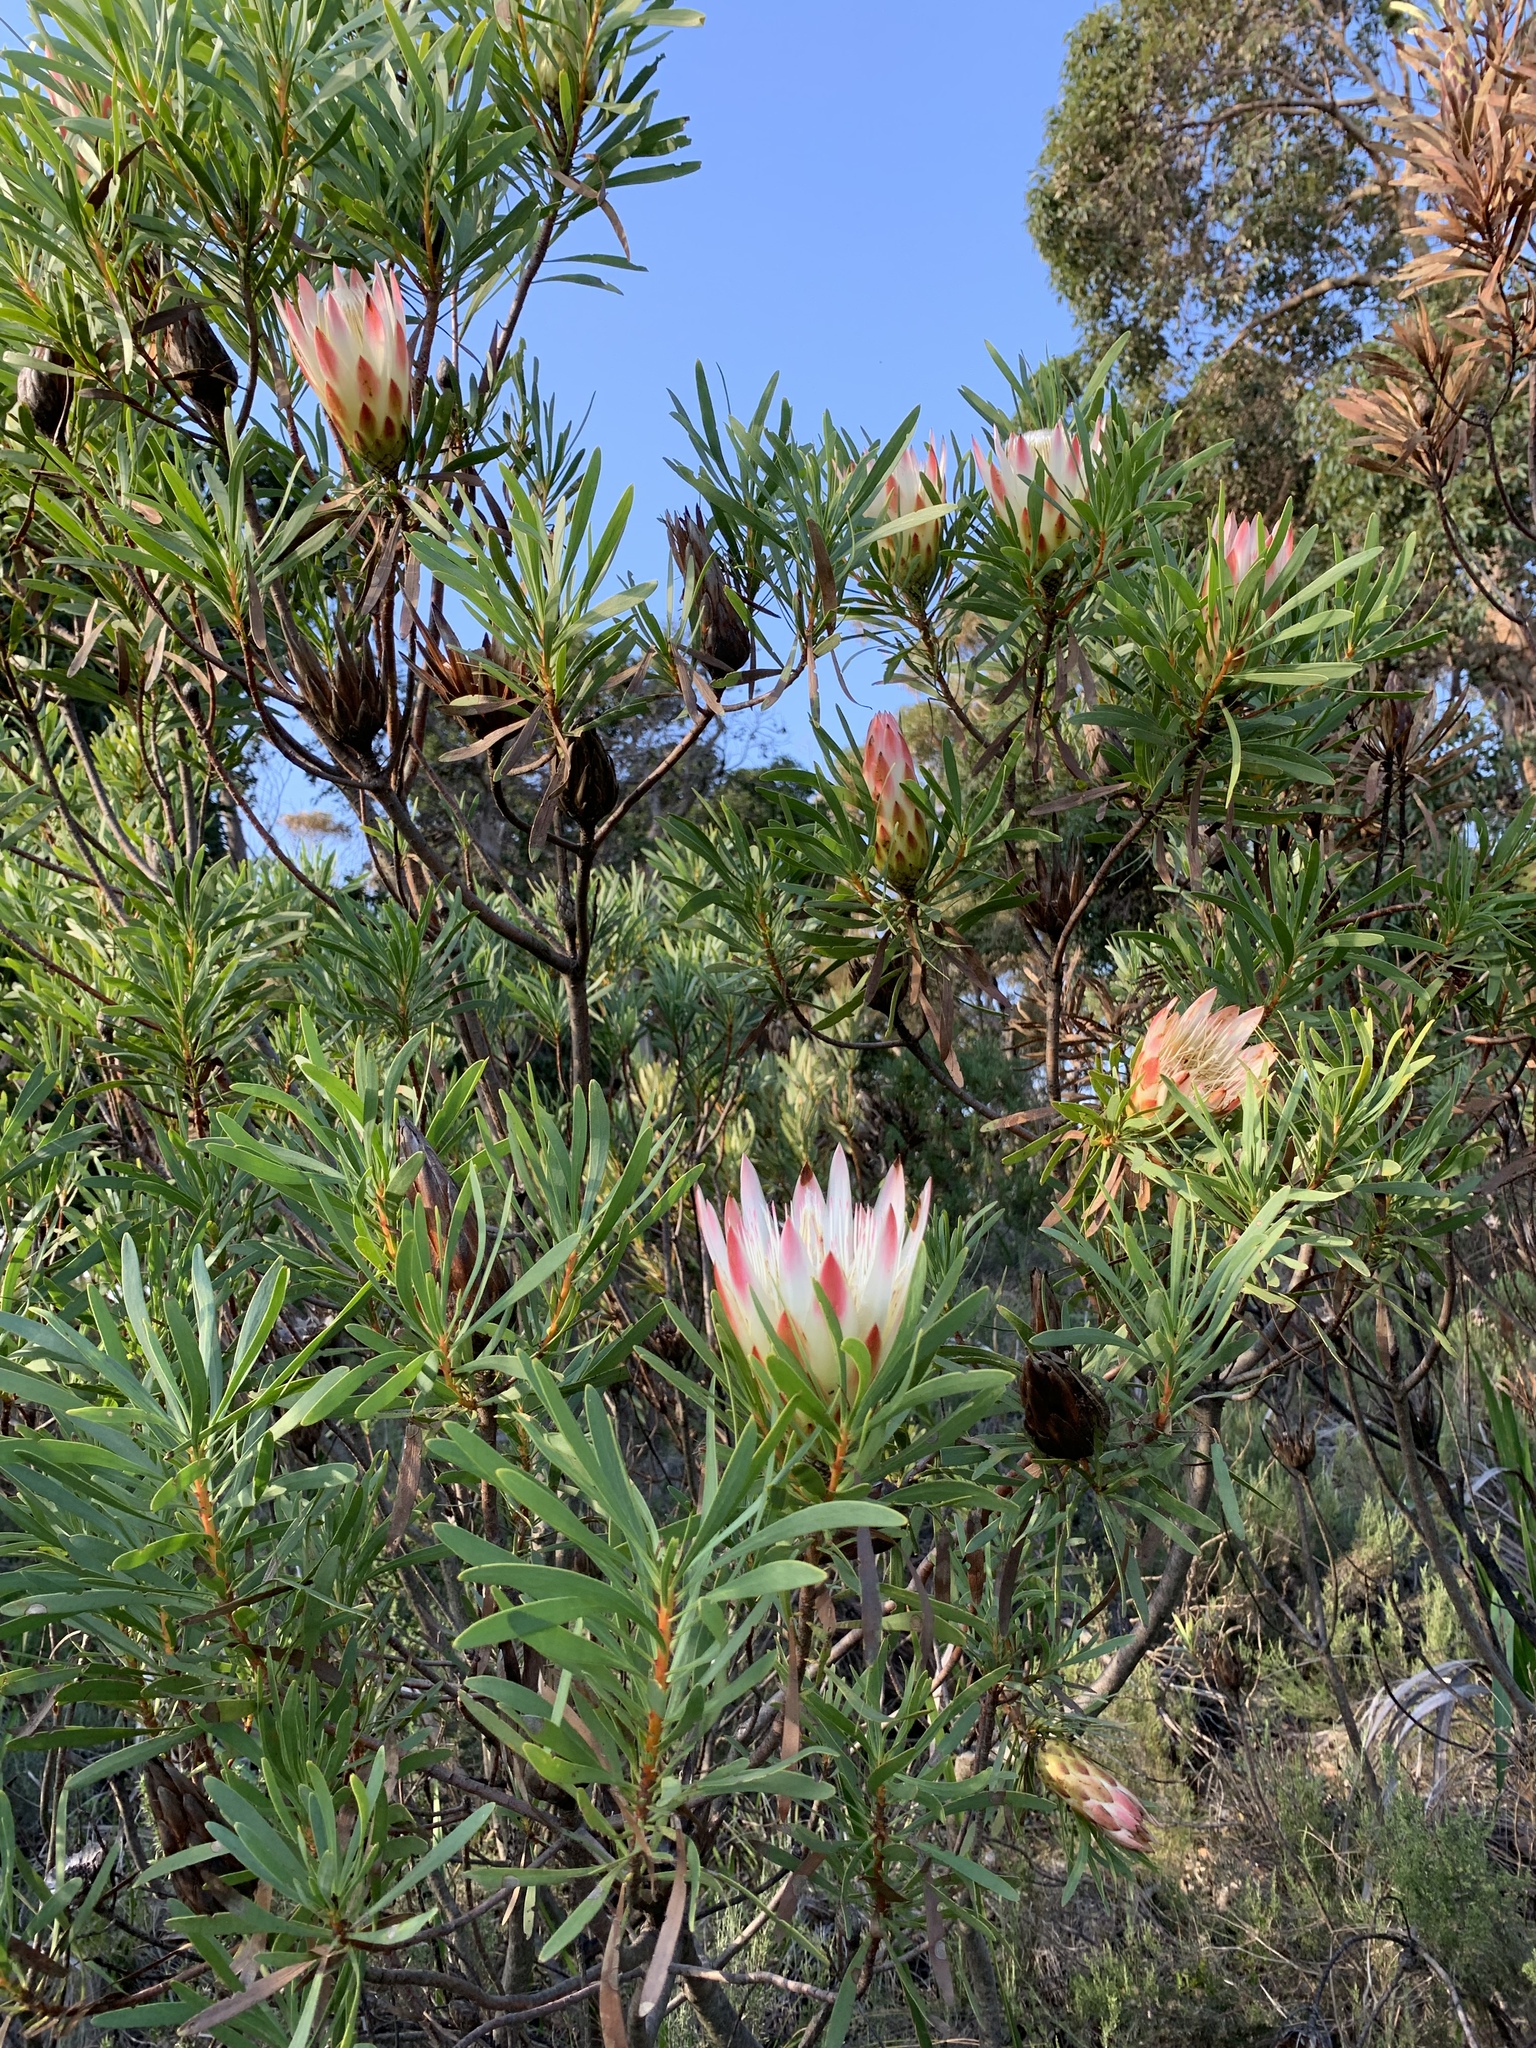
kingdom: Plantae
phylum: Tracheophyta
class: Magnoliopsida
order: Proteales
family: Proteaceae
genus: Protea
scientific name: Protea repens
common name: Sugarbush
